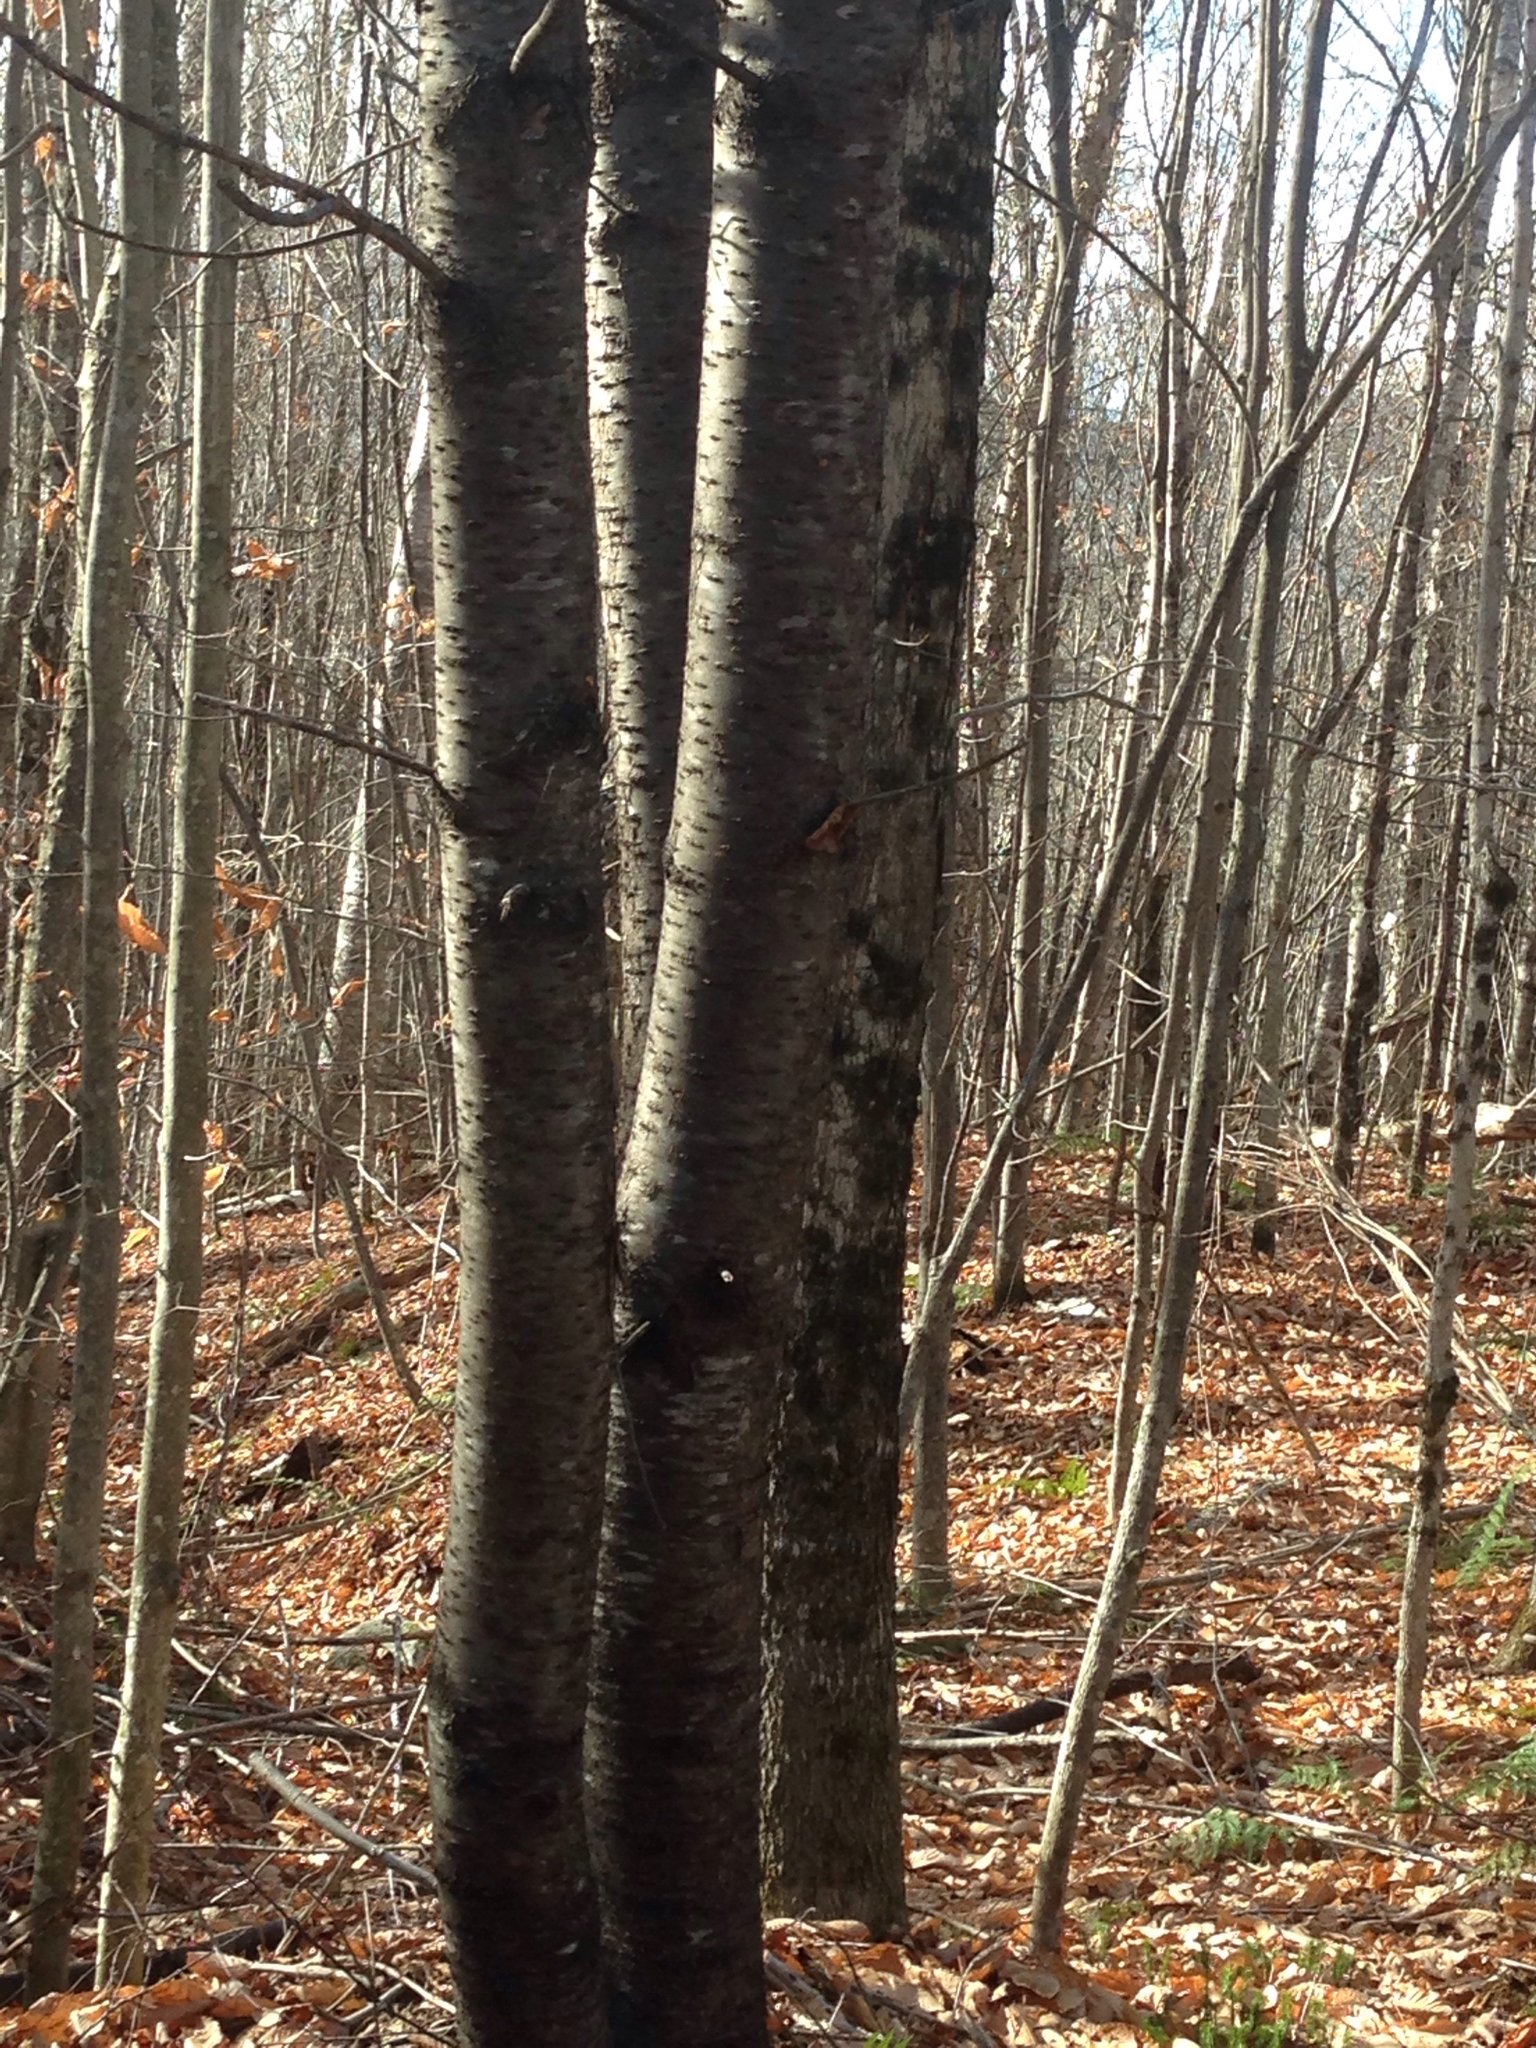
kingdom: Plantae
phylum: Tracheophyta
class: Magnoliopsida
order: Rosales
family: Rosaceae
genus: Prunus
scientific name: Prunus pensylvanica
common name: Pin cherry
